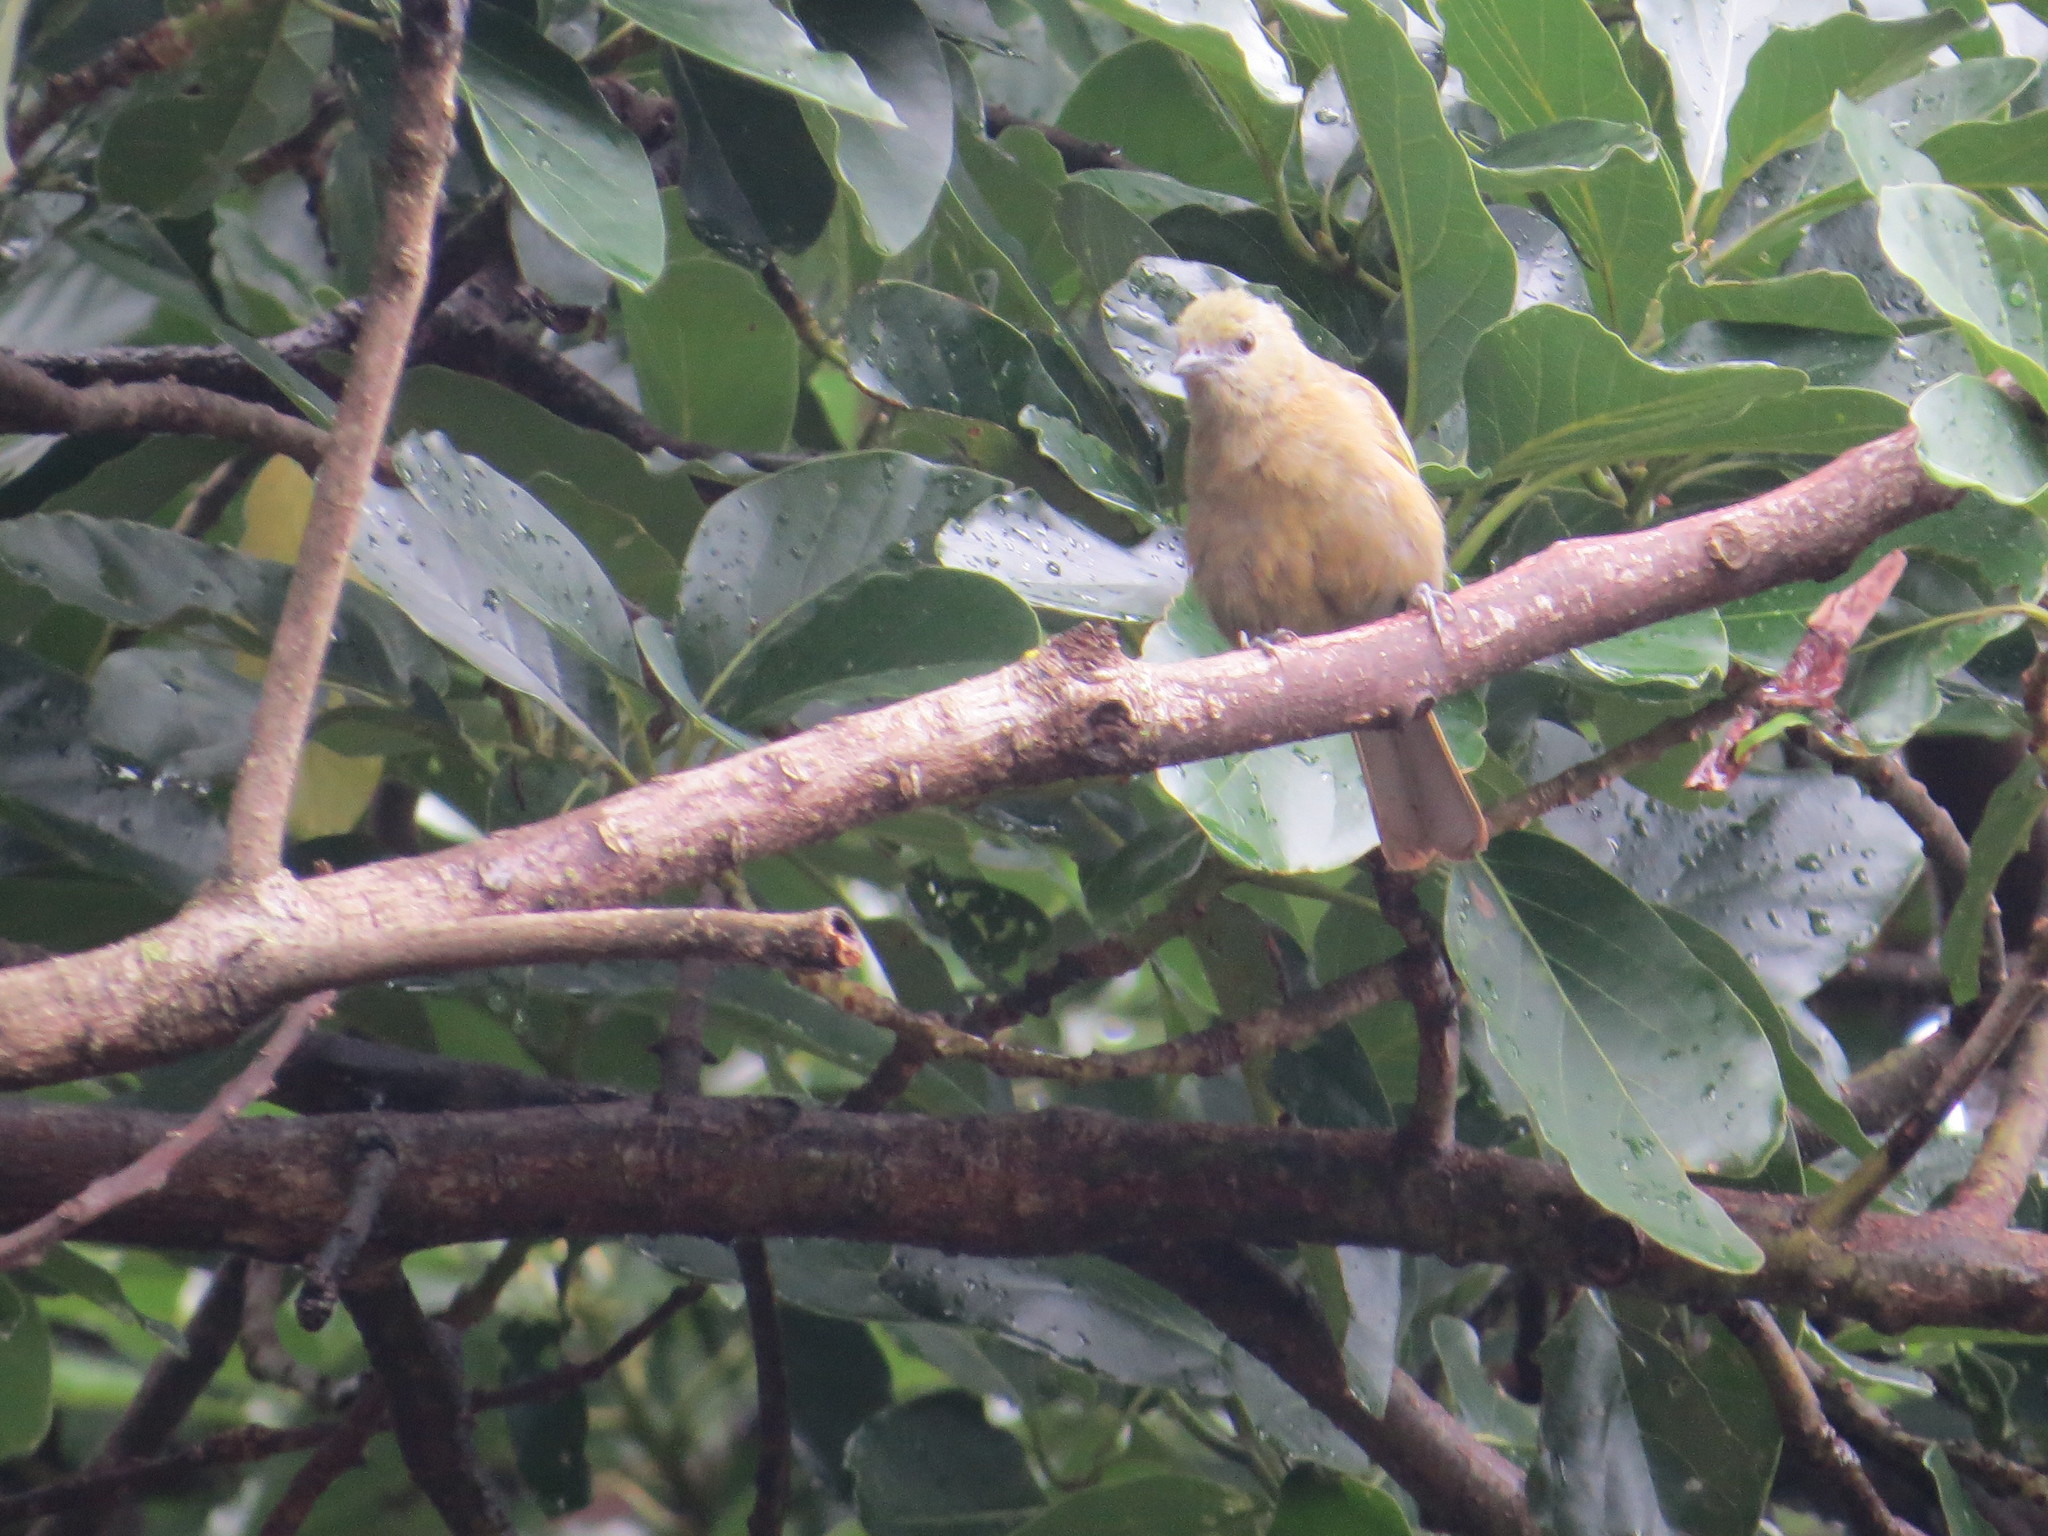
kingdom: Animalia
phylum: Chordata
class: Aves
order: Passeriformes
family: Thraupidae
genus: Thraupis
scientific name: Thraupis palmarum
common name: Palm tanager
